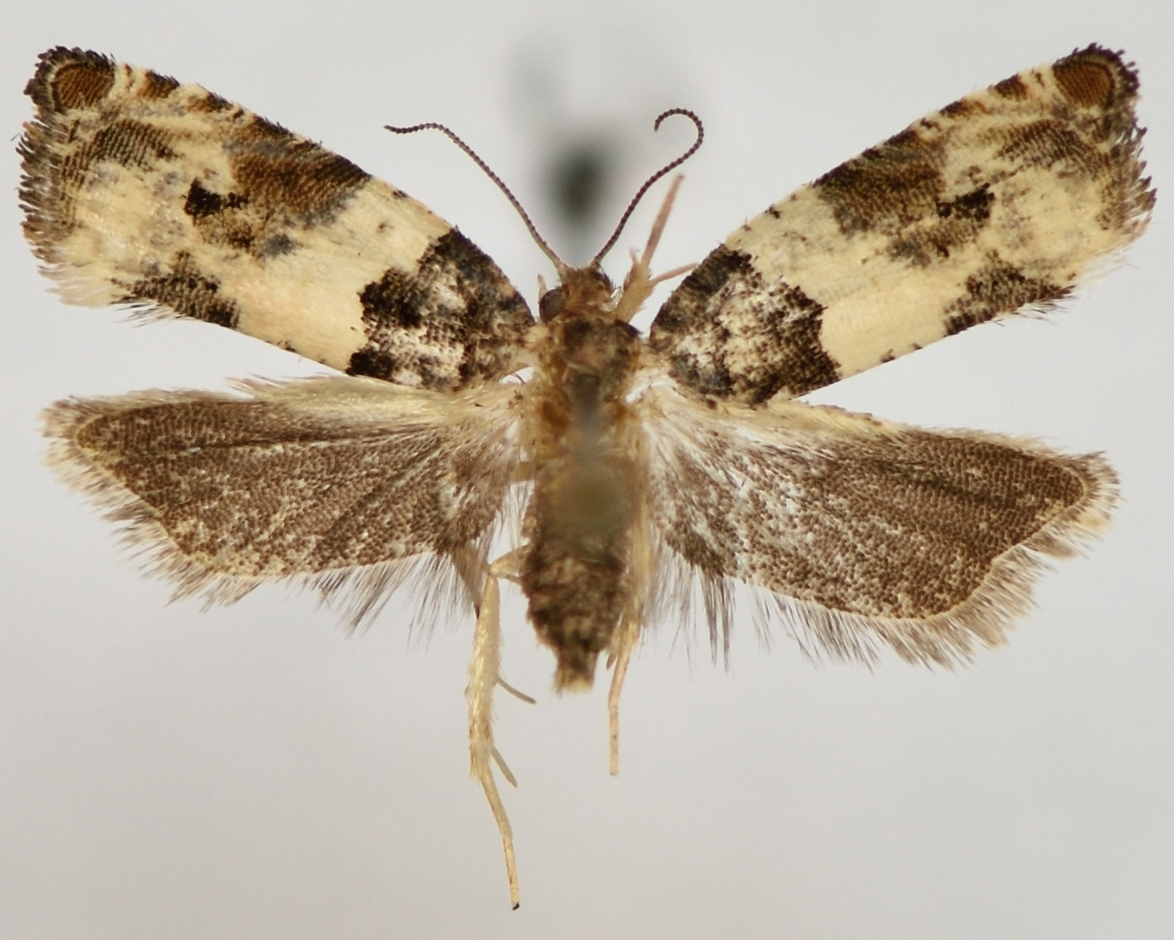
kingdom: Animalia
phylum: Arthropoda
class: Insecta
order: Lepidoptera
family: Tortricidae
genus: Gypsonoma
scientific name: Gypsonoma dealbana
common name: Common cloaked shoot
